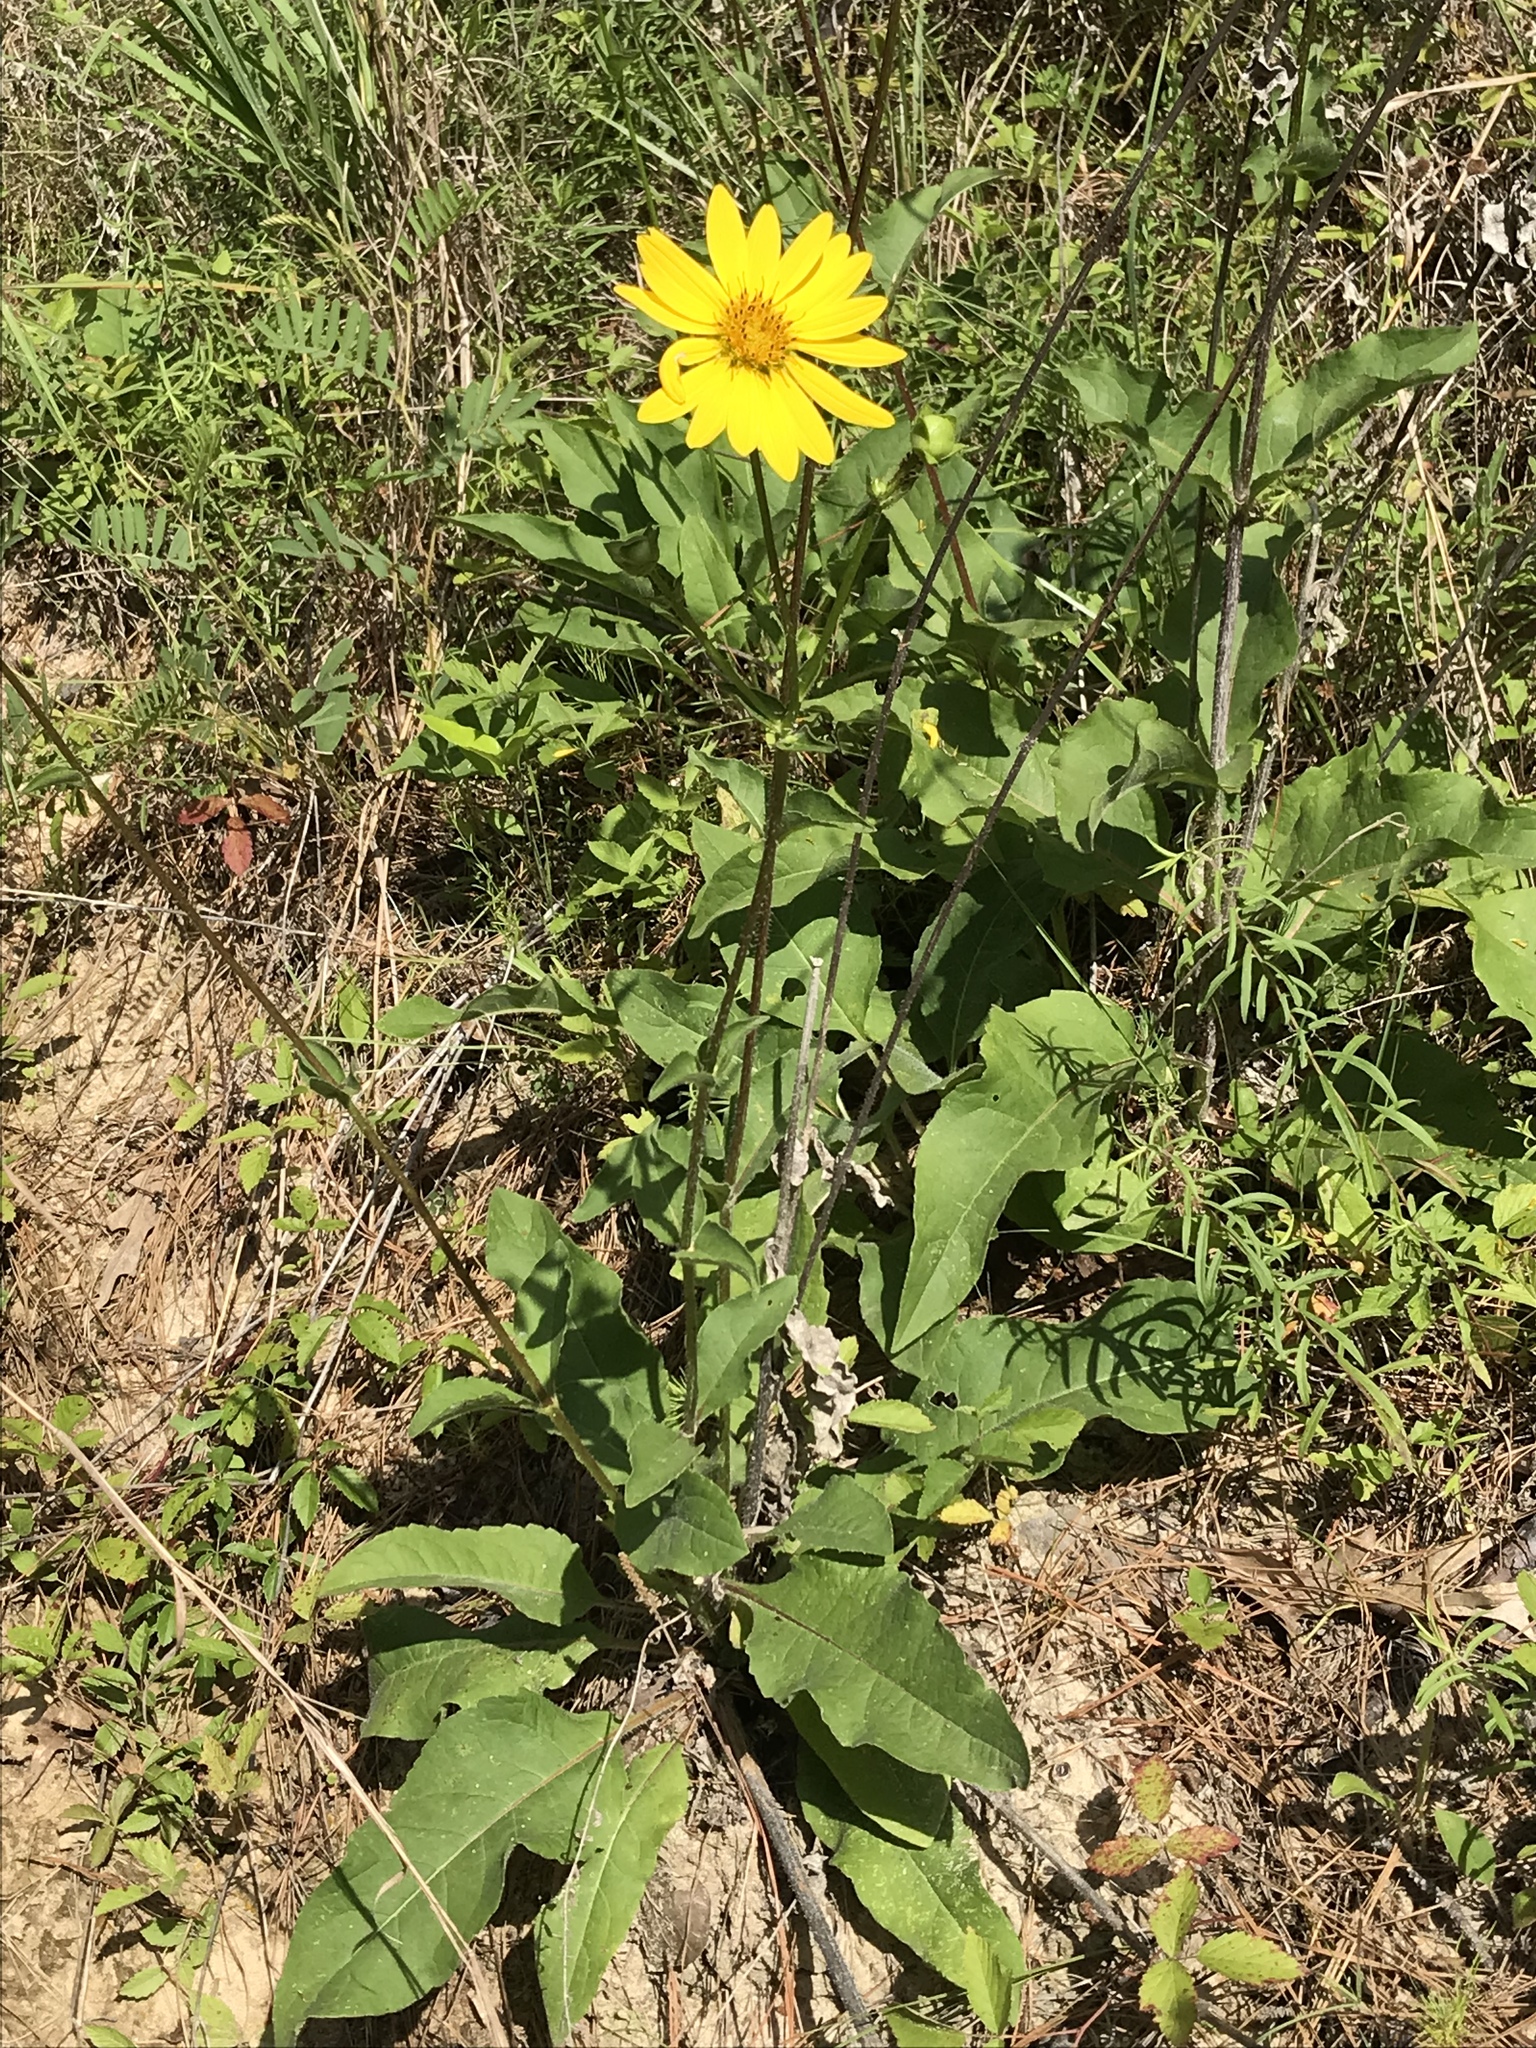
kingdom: Plantae
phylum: Tracheophyta
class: Magnoliopsida
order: Asterales
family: Asteraceae
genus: Silphium
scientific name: Silphium radula
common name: Roughleaf rosinweed
